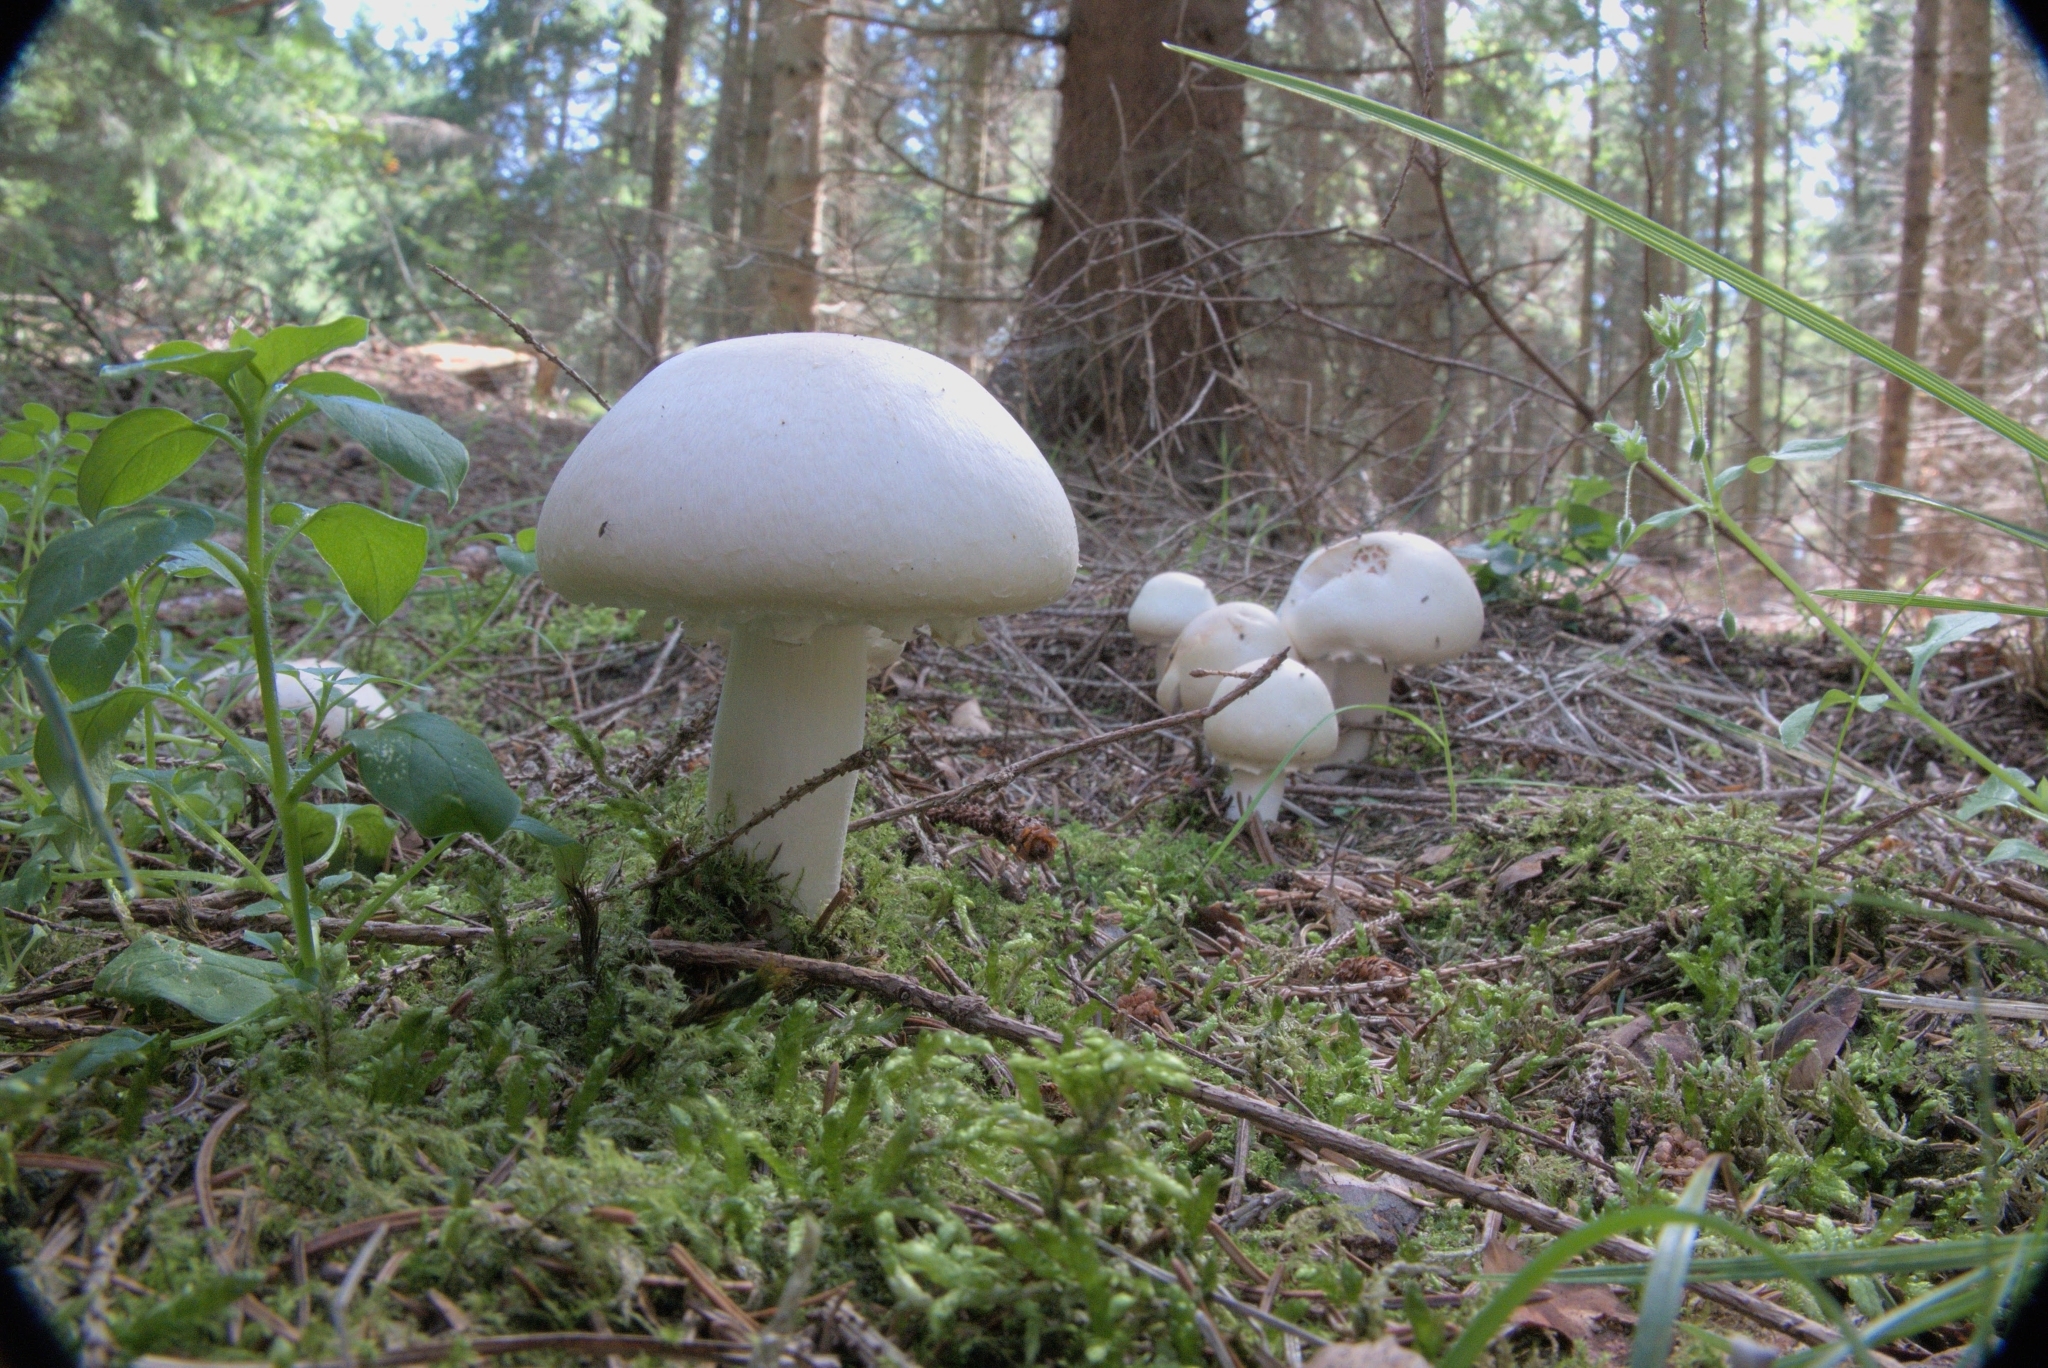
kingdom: Fungi
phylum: Basidiomycota
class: Agaricomycetes
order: Agaricales
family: Agaricaceae
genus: Agaricus
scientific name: Agaricus arvensis
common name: Horse mushroom
